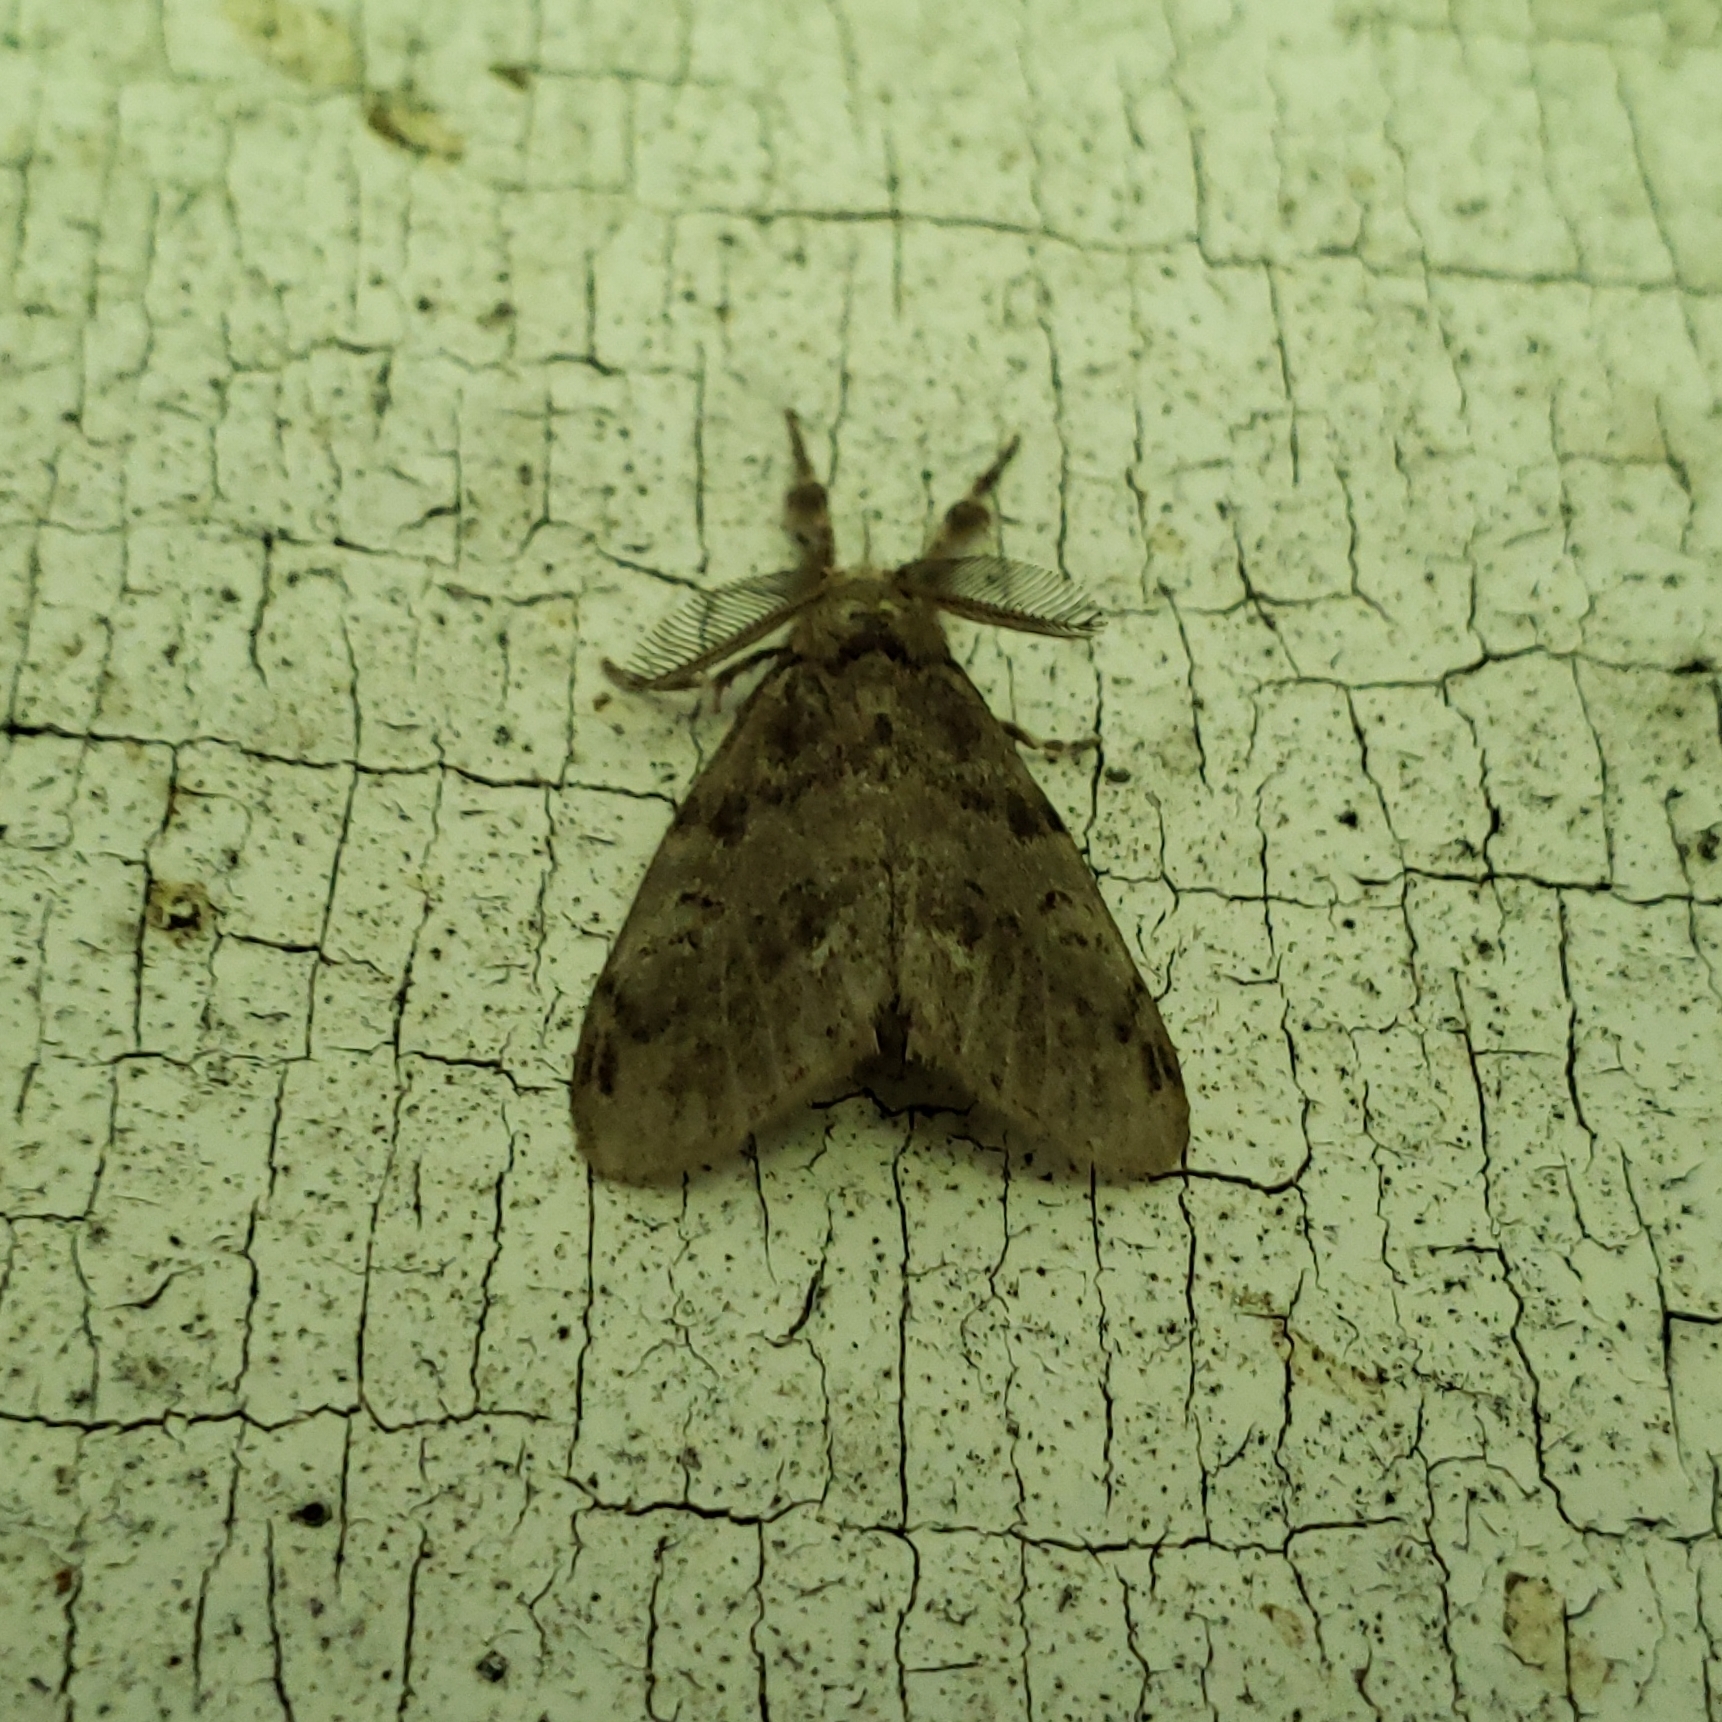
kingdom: Animalia
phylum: Arthropoda
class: Insecta
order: Lepidoptera
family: Erebidae
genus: Orgyia
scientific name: Orgyia leucostigma
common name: White-marked tussock moth
